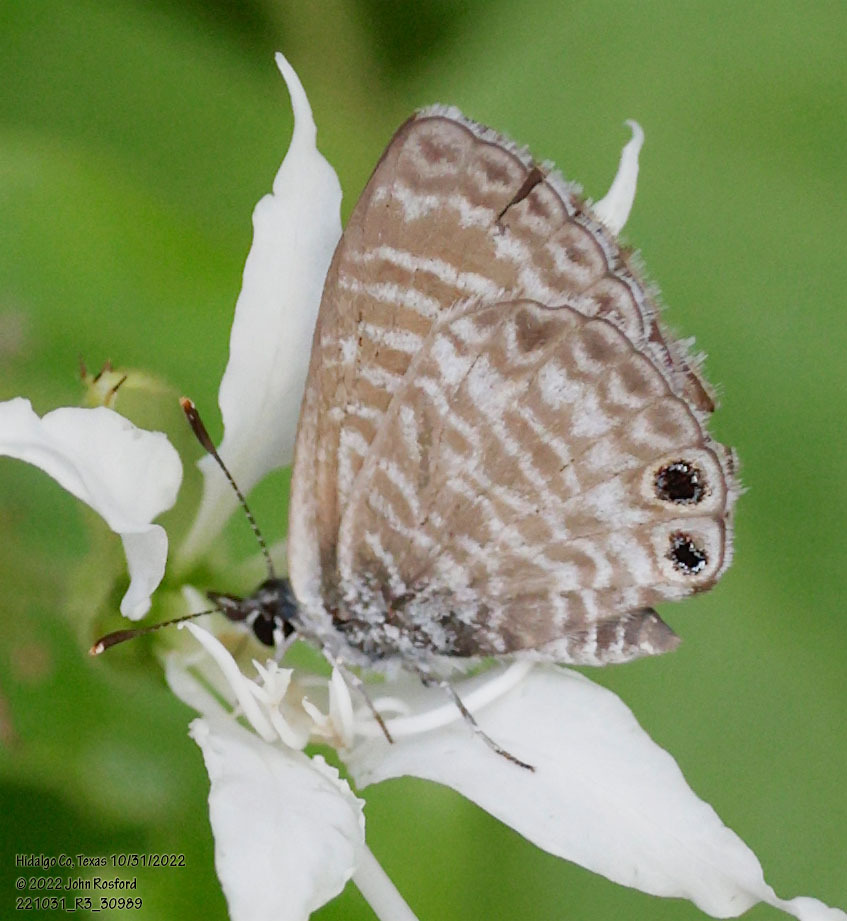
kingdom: Animalia
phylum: Arthropoda
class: Insecta
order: Lepidoptera
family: Lycaenidae
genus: Leptotes
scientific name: Leptotes marina
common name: Marine blue
